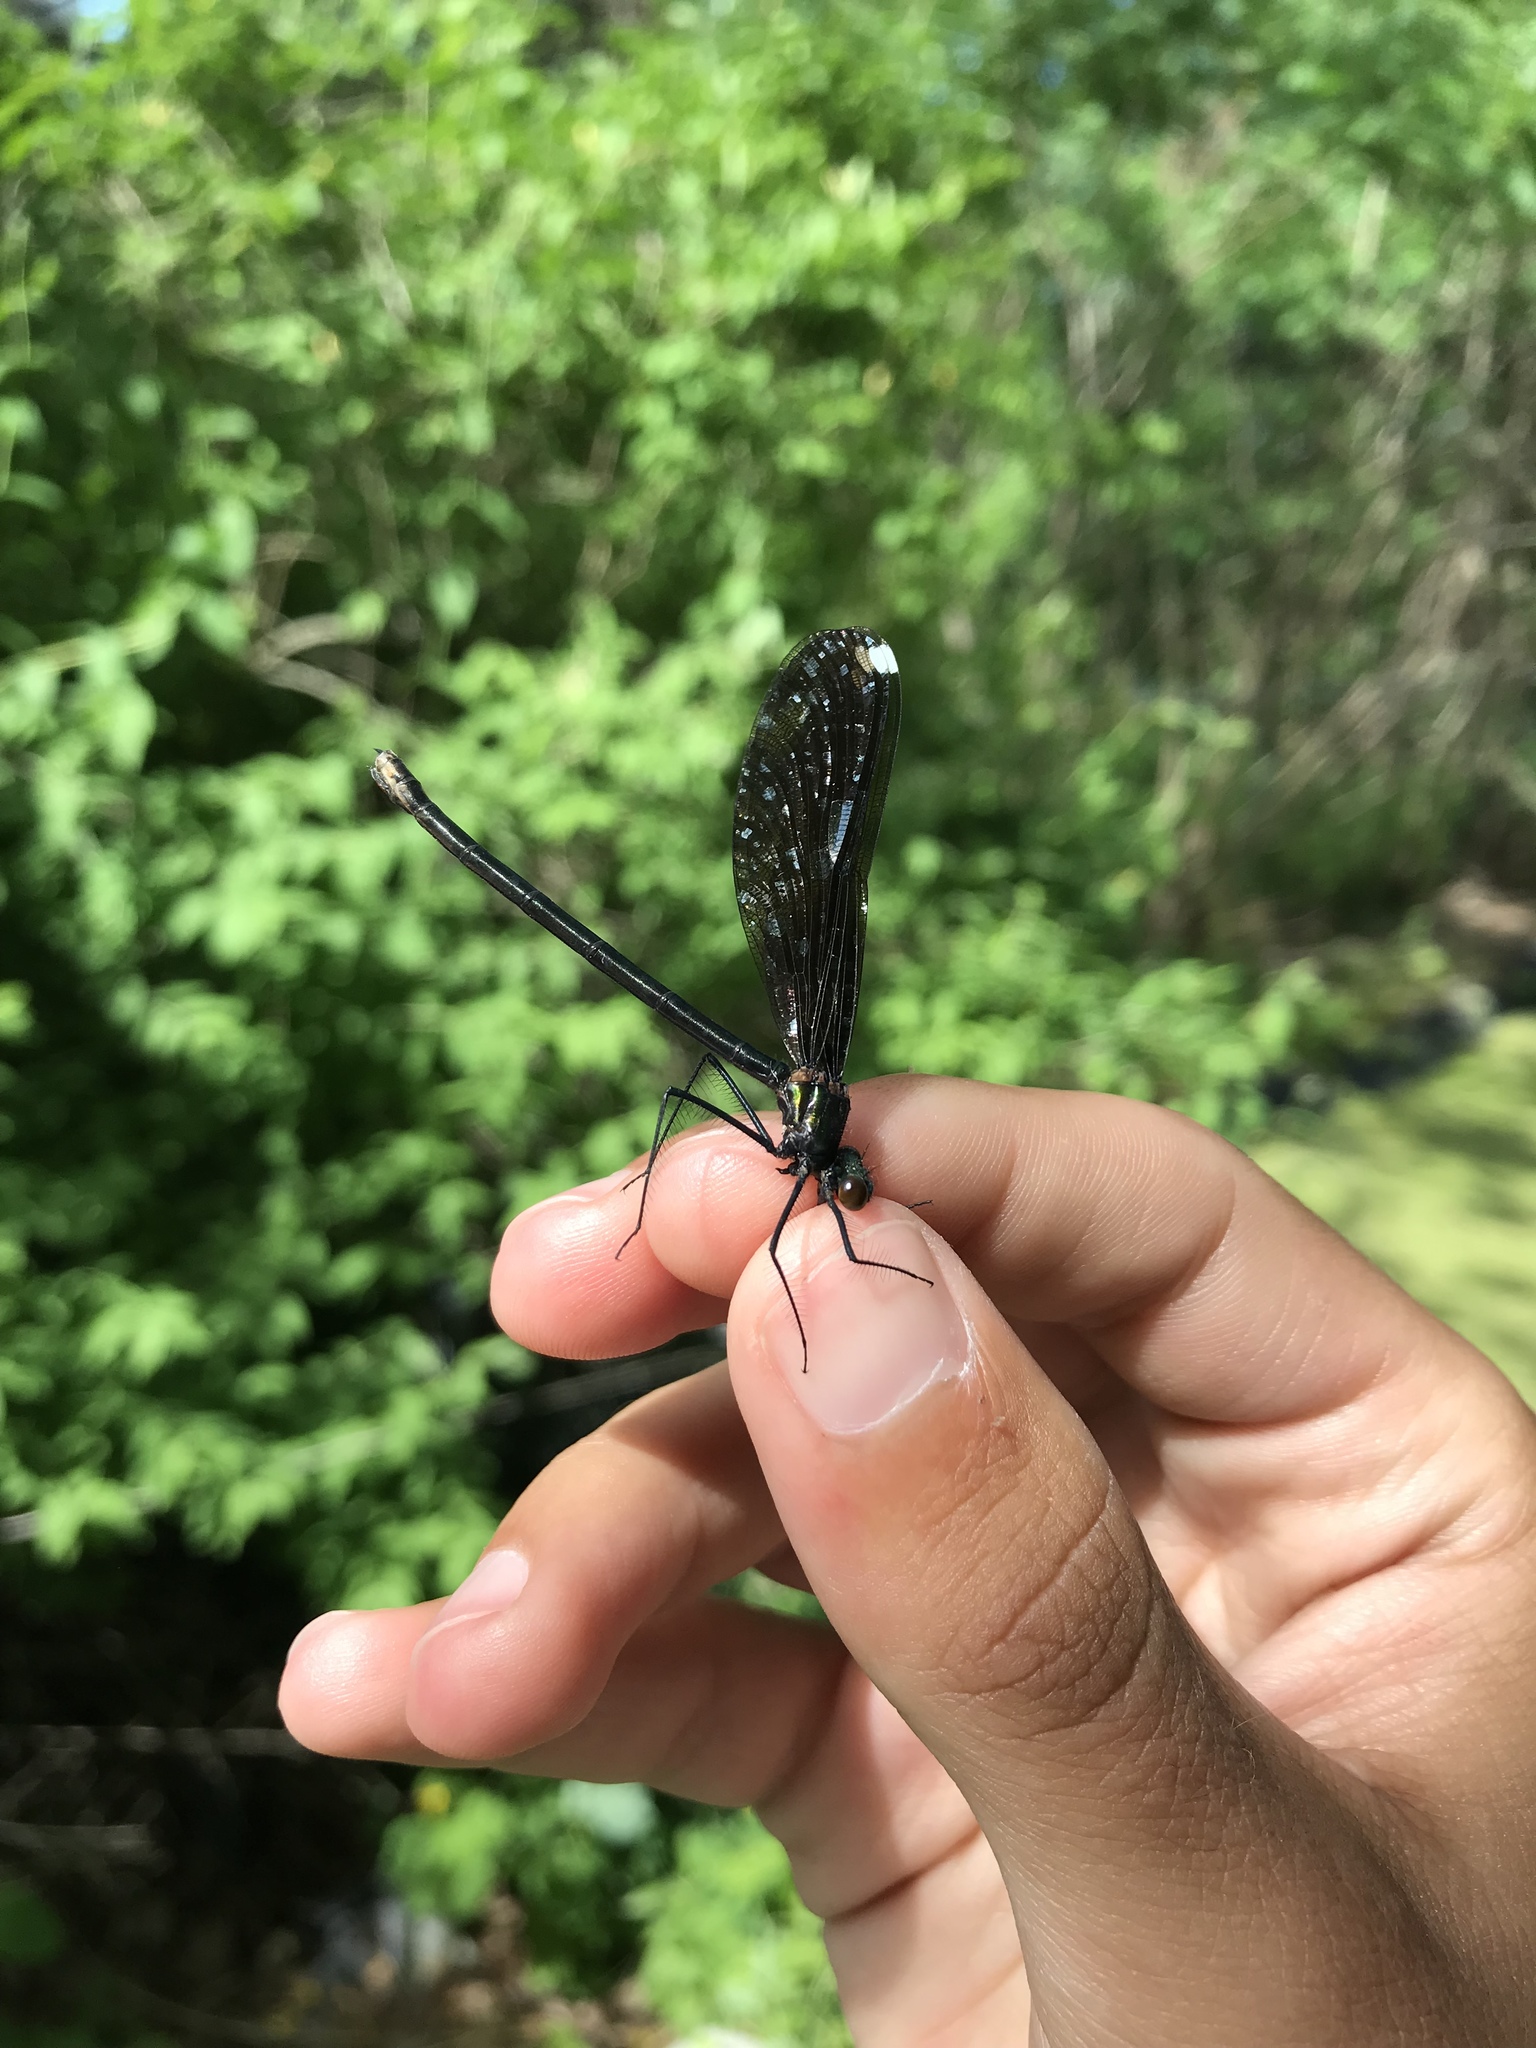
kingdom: Animalia
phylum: Arthropoda
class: Insecta
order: Odonata
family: Calopterygidae
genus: Calopteryx
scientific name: Calopteryx maculata
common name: Ebony jewelwing
